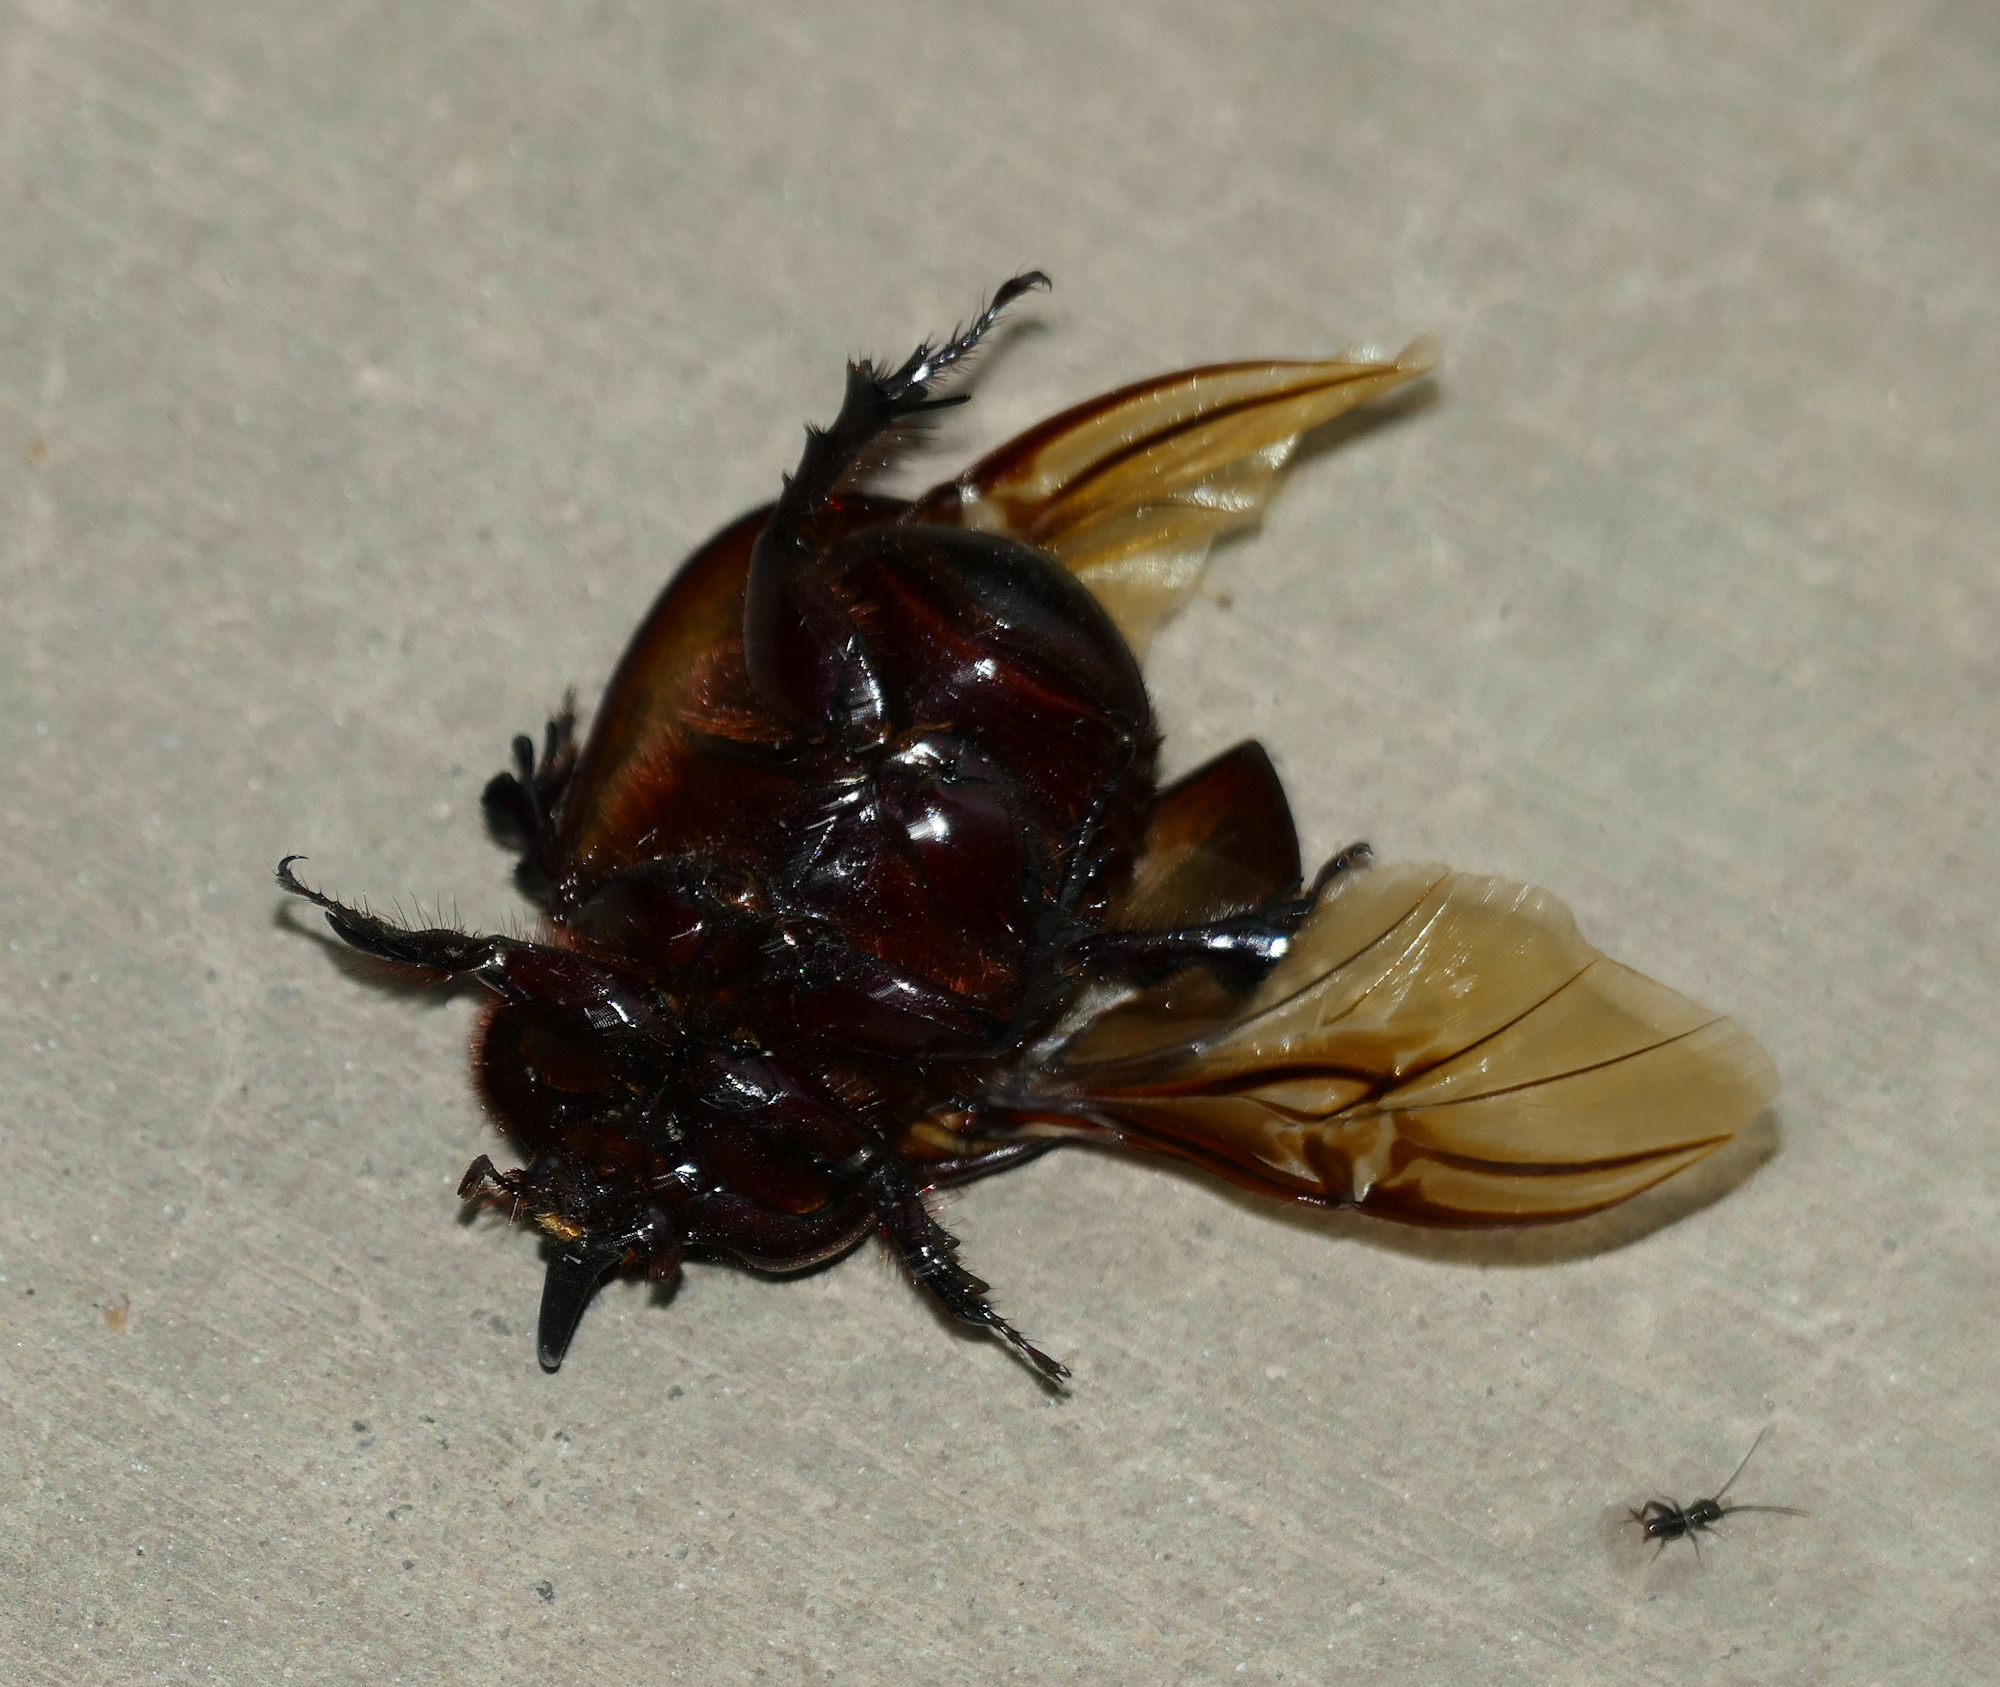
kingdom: Animalia
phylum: Arthropoda
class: Insecta
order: Coleoptera
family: Scarabaeidae
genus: Xyloryctes
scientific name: Xyloryctes thestalus
